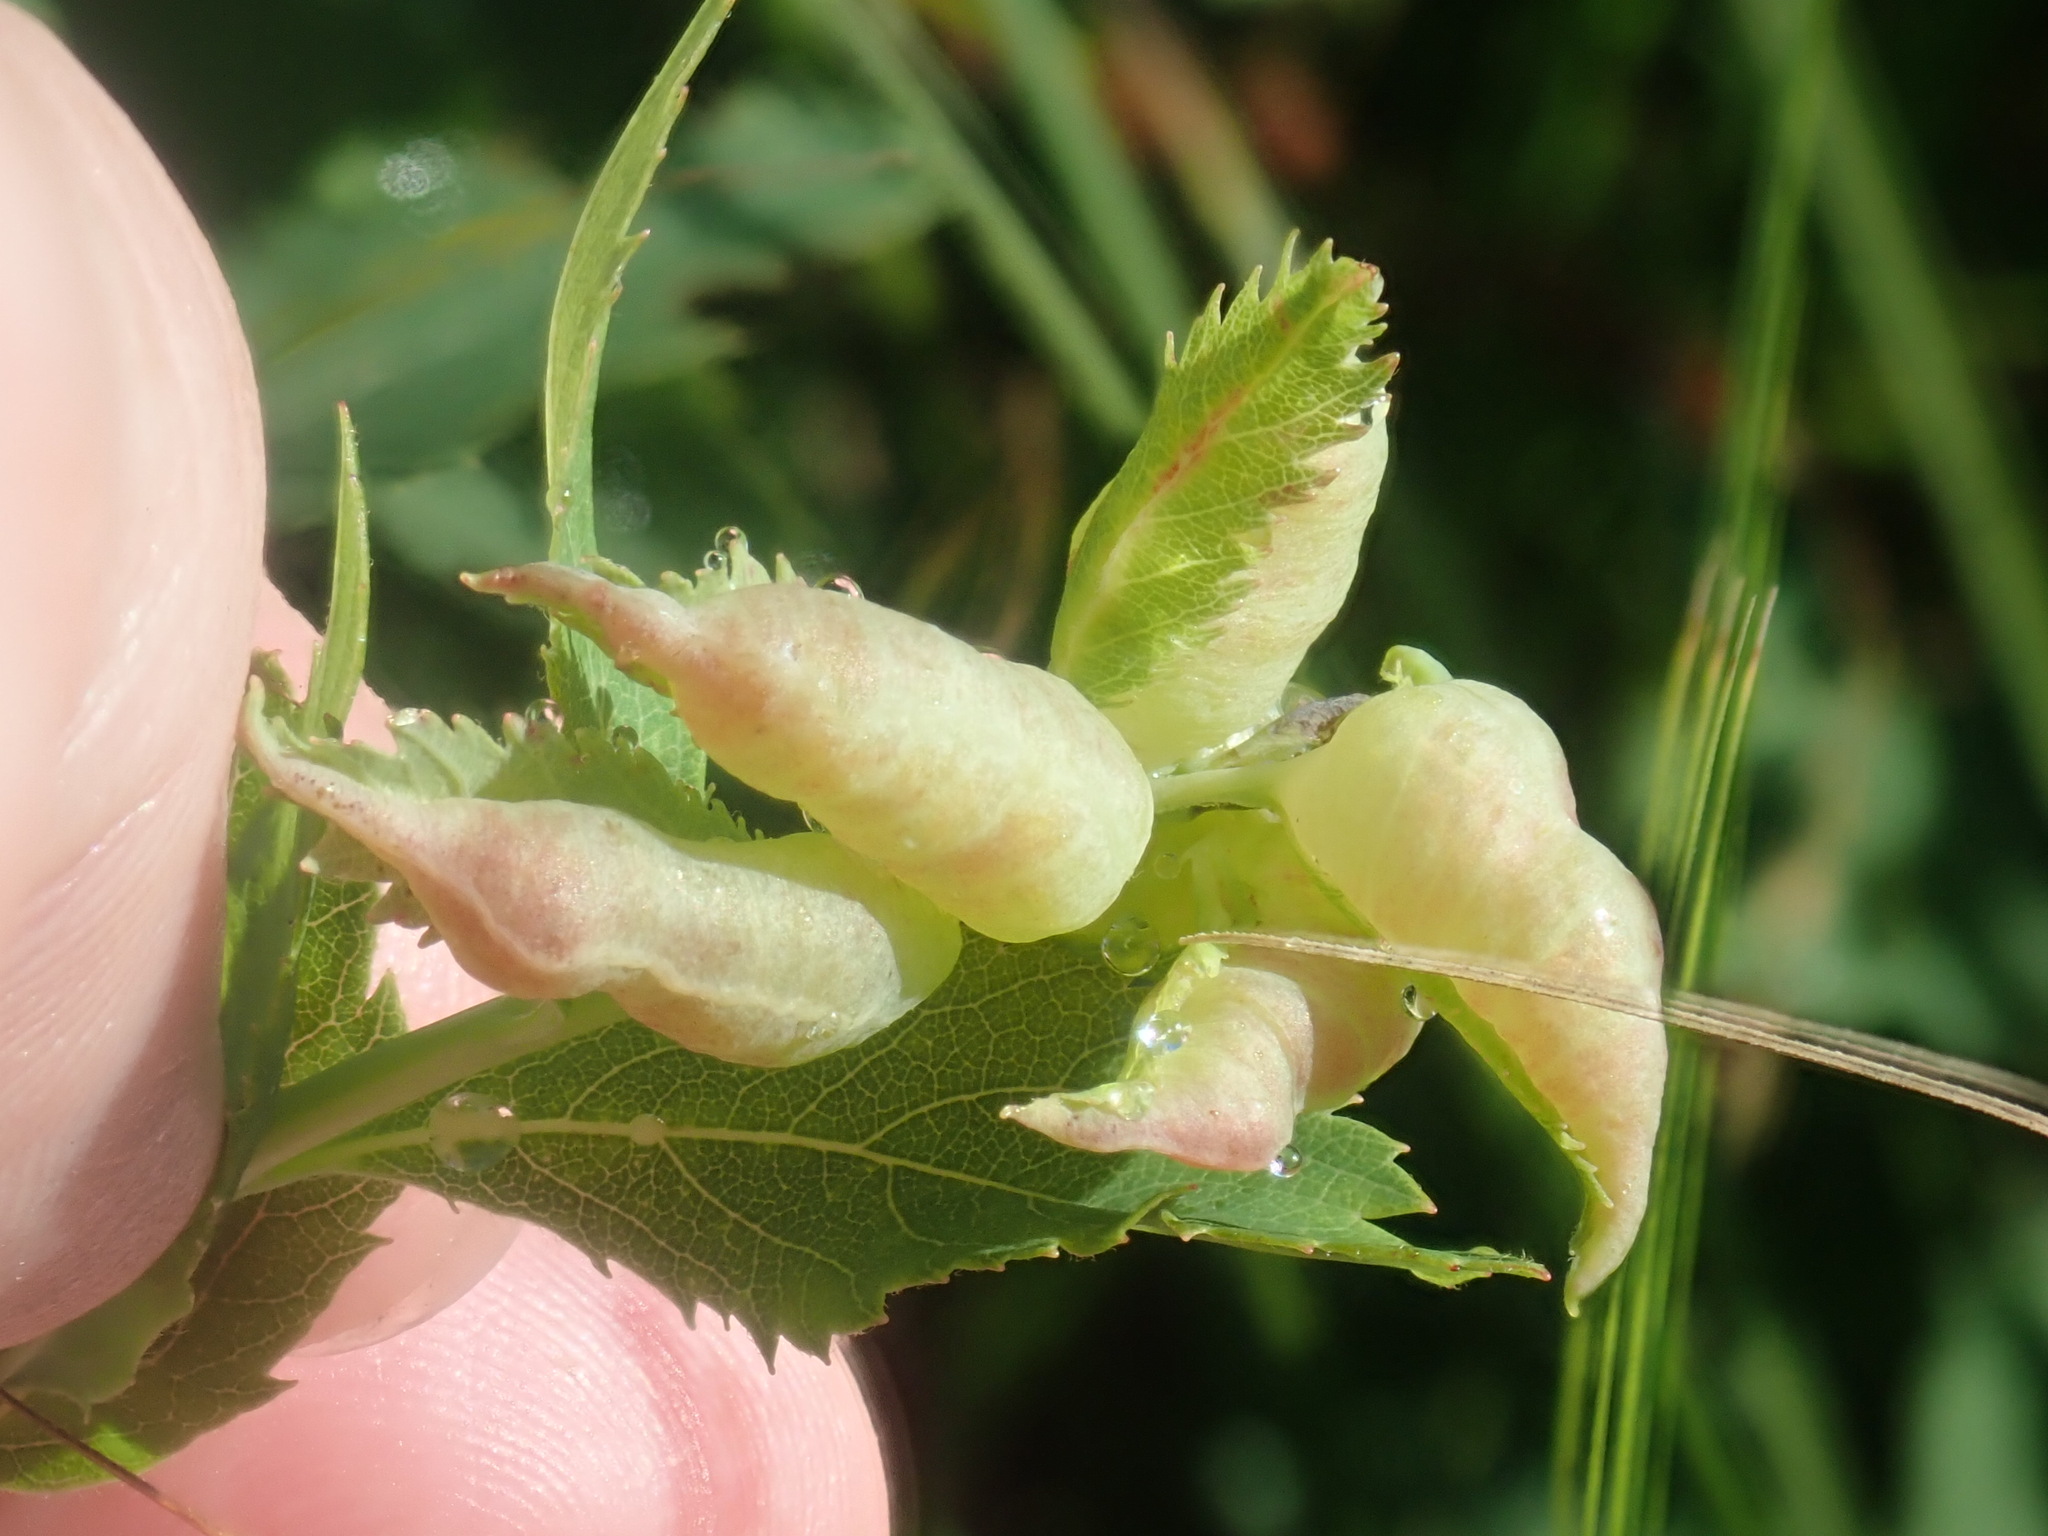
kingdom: Animalia
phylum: Arthropoda
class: Insecta
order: Diptera
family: Cecidomyiidae
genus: Dasineura
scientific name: Dasineura salicifoliae
